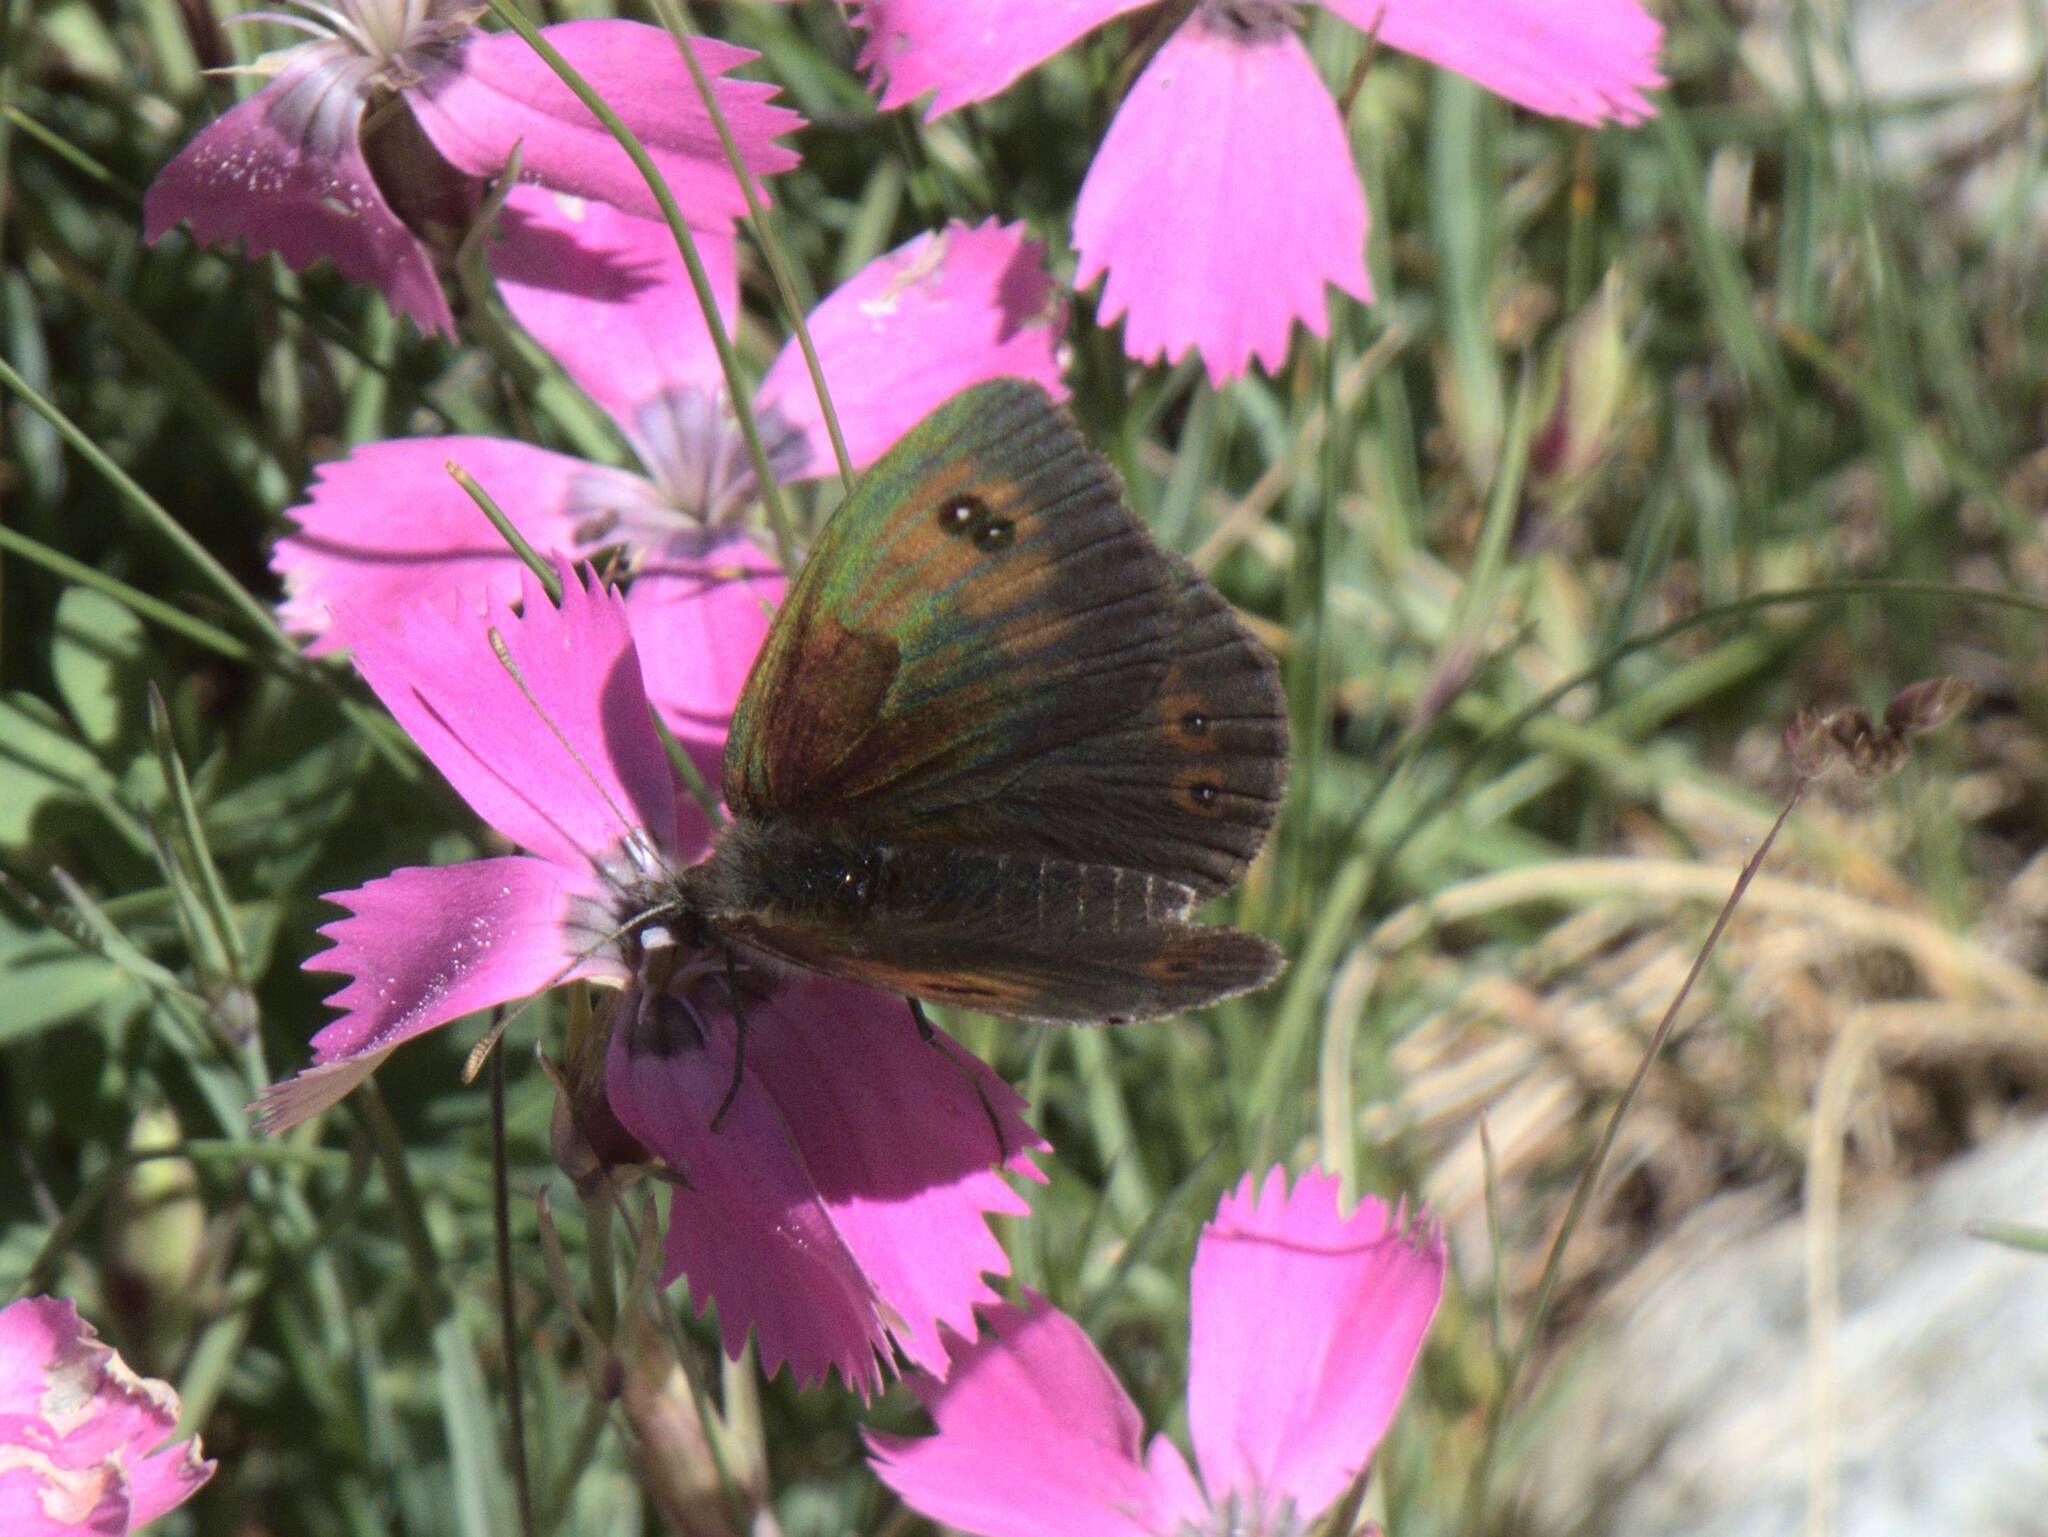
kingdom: Animalia
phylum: Arthropoda
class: Insecta
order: Lepidoptera
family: Nymphalidae
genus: Erebia
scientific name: Erebia cassioides
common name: Common brassy ringlet
